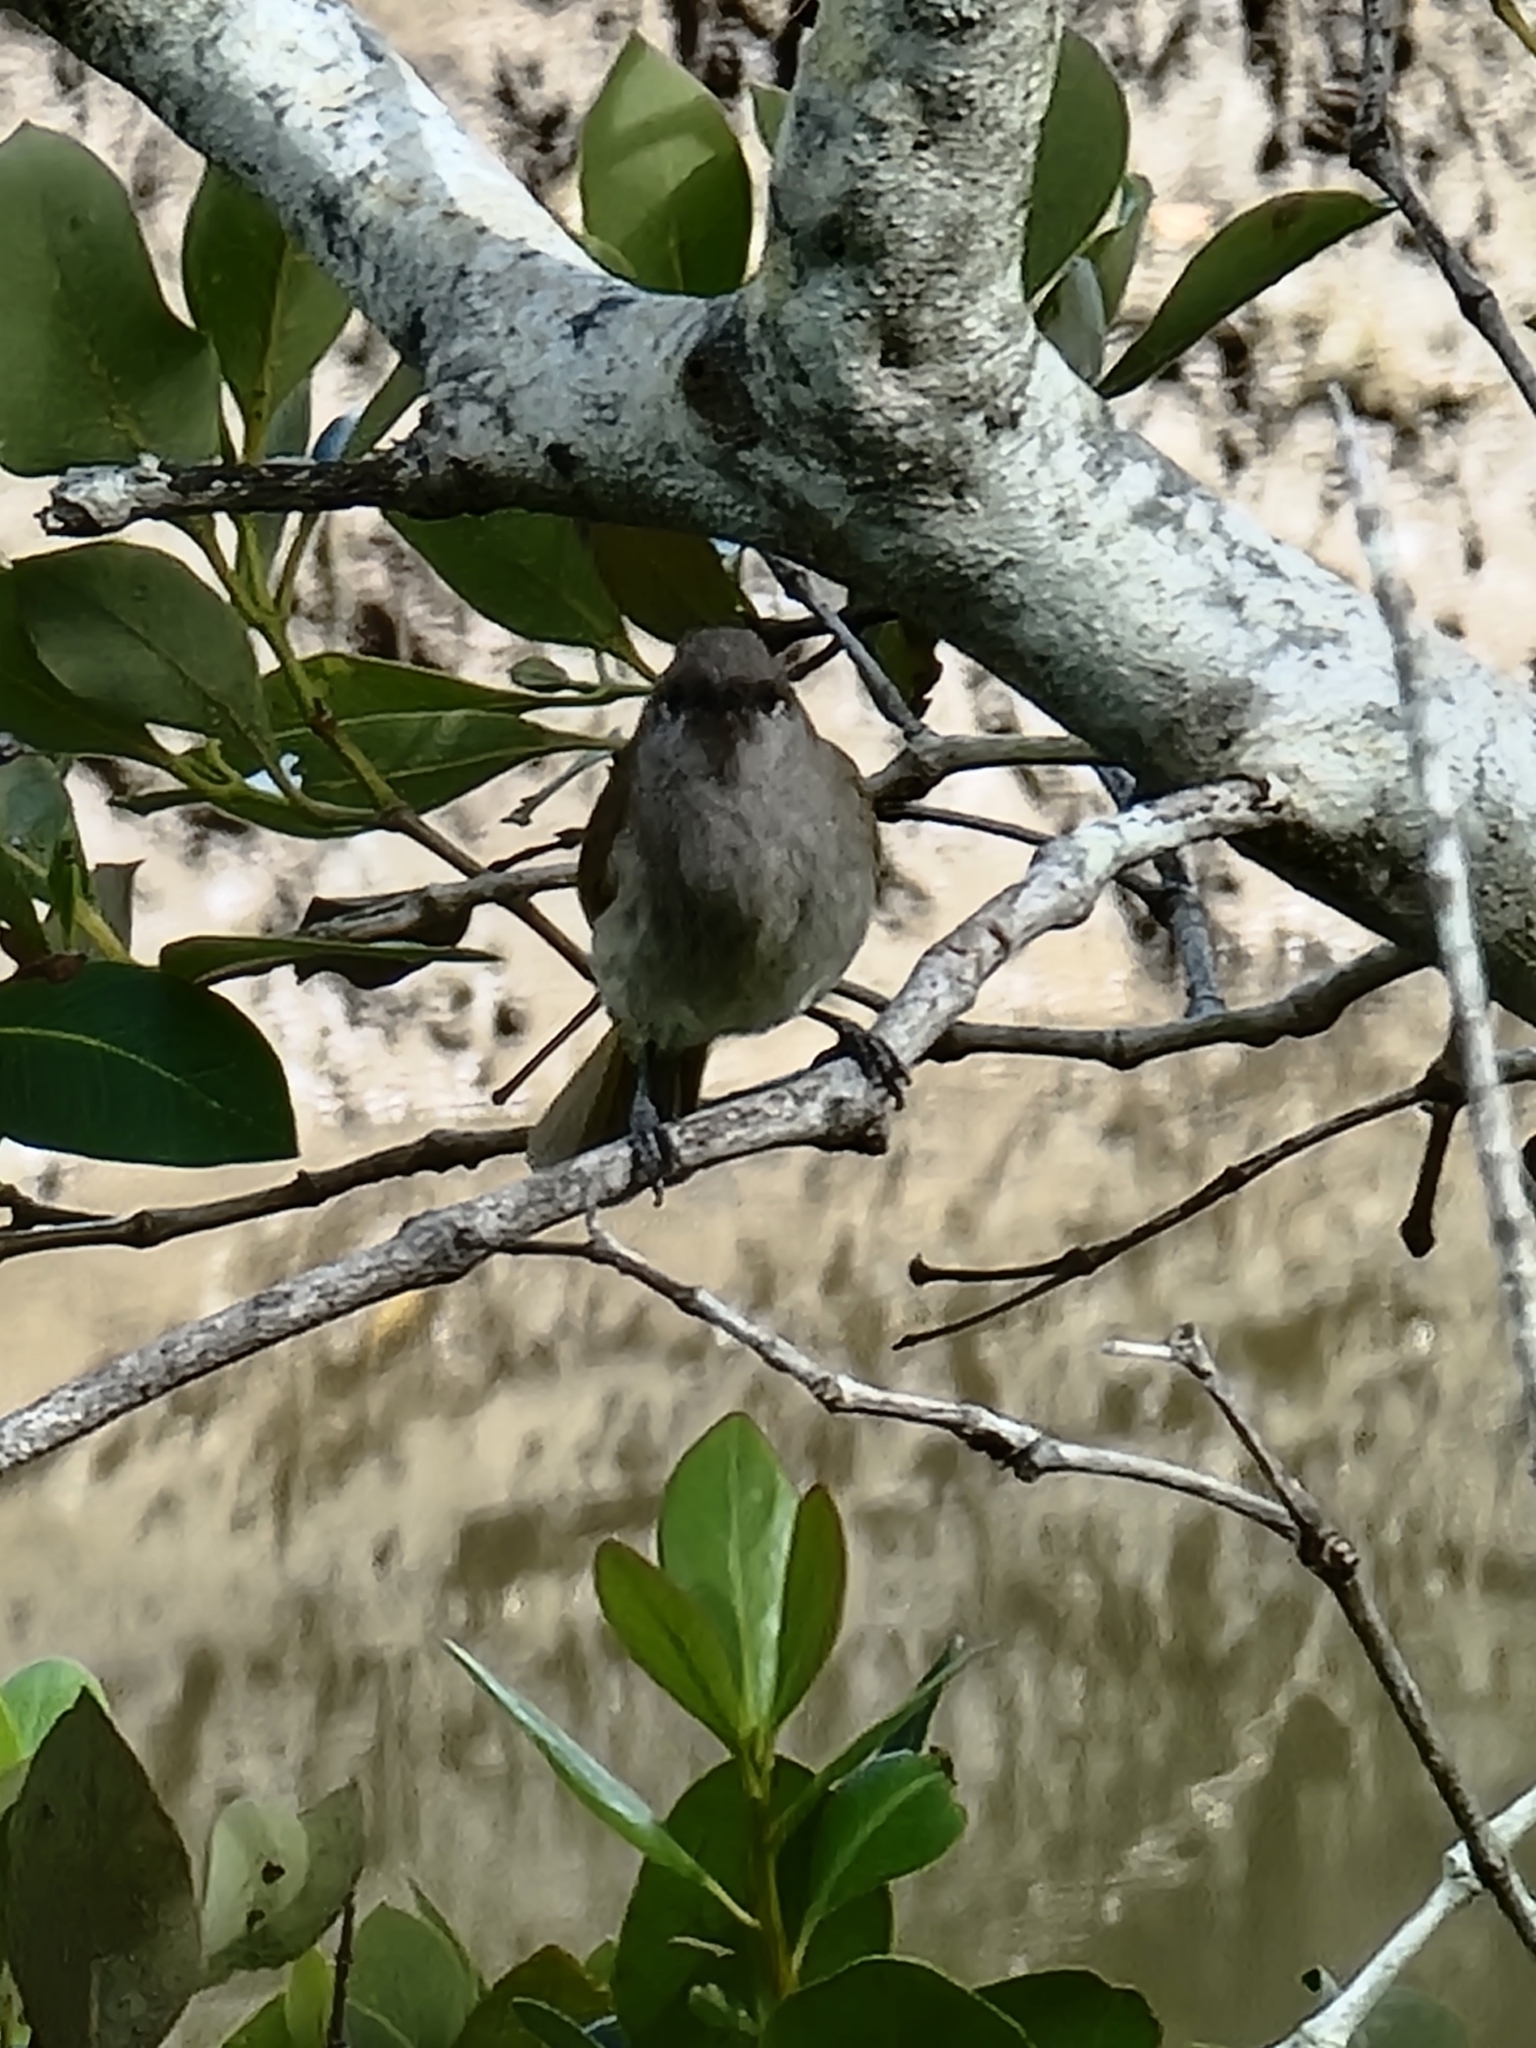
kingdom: Animalia
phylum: Chordata
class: Aves
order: Passeriformes
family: Meliphagidae
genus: Lichmera
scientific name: Lichmera indistincta
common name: Brown honeyeater
